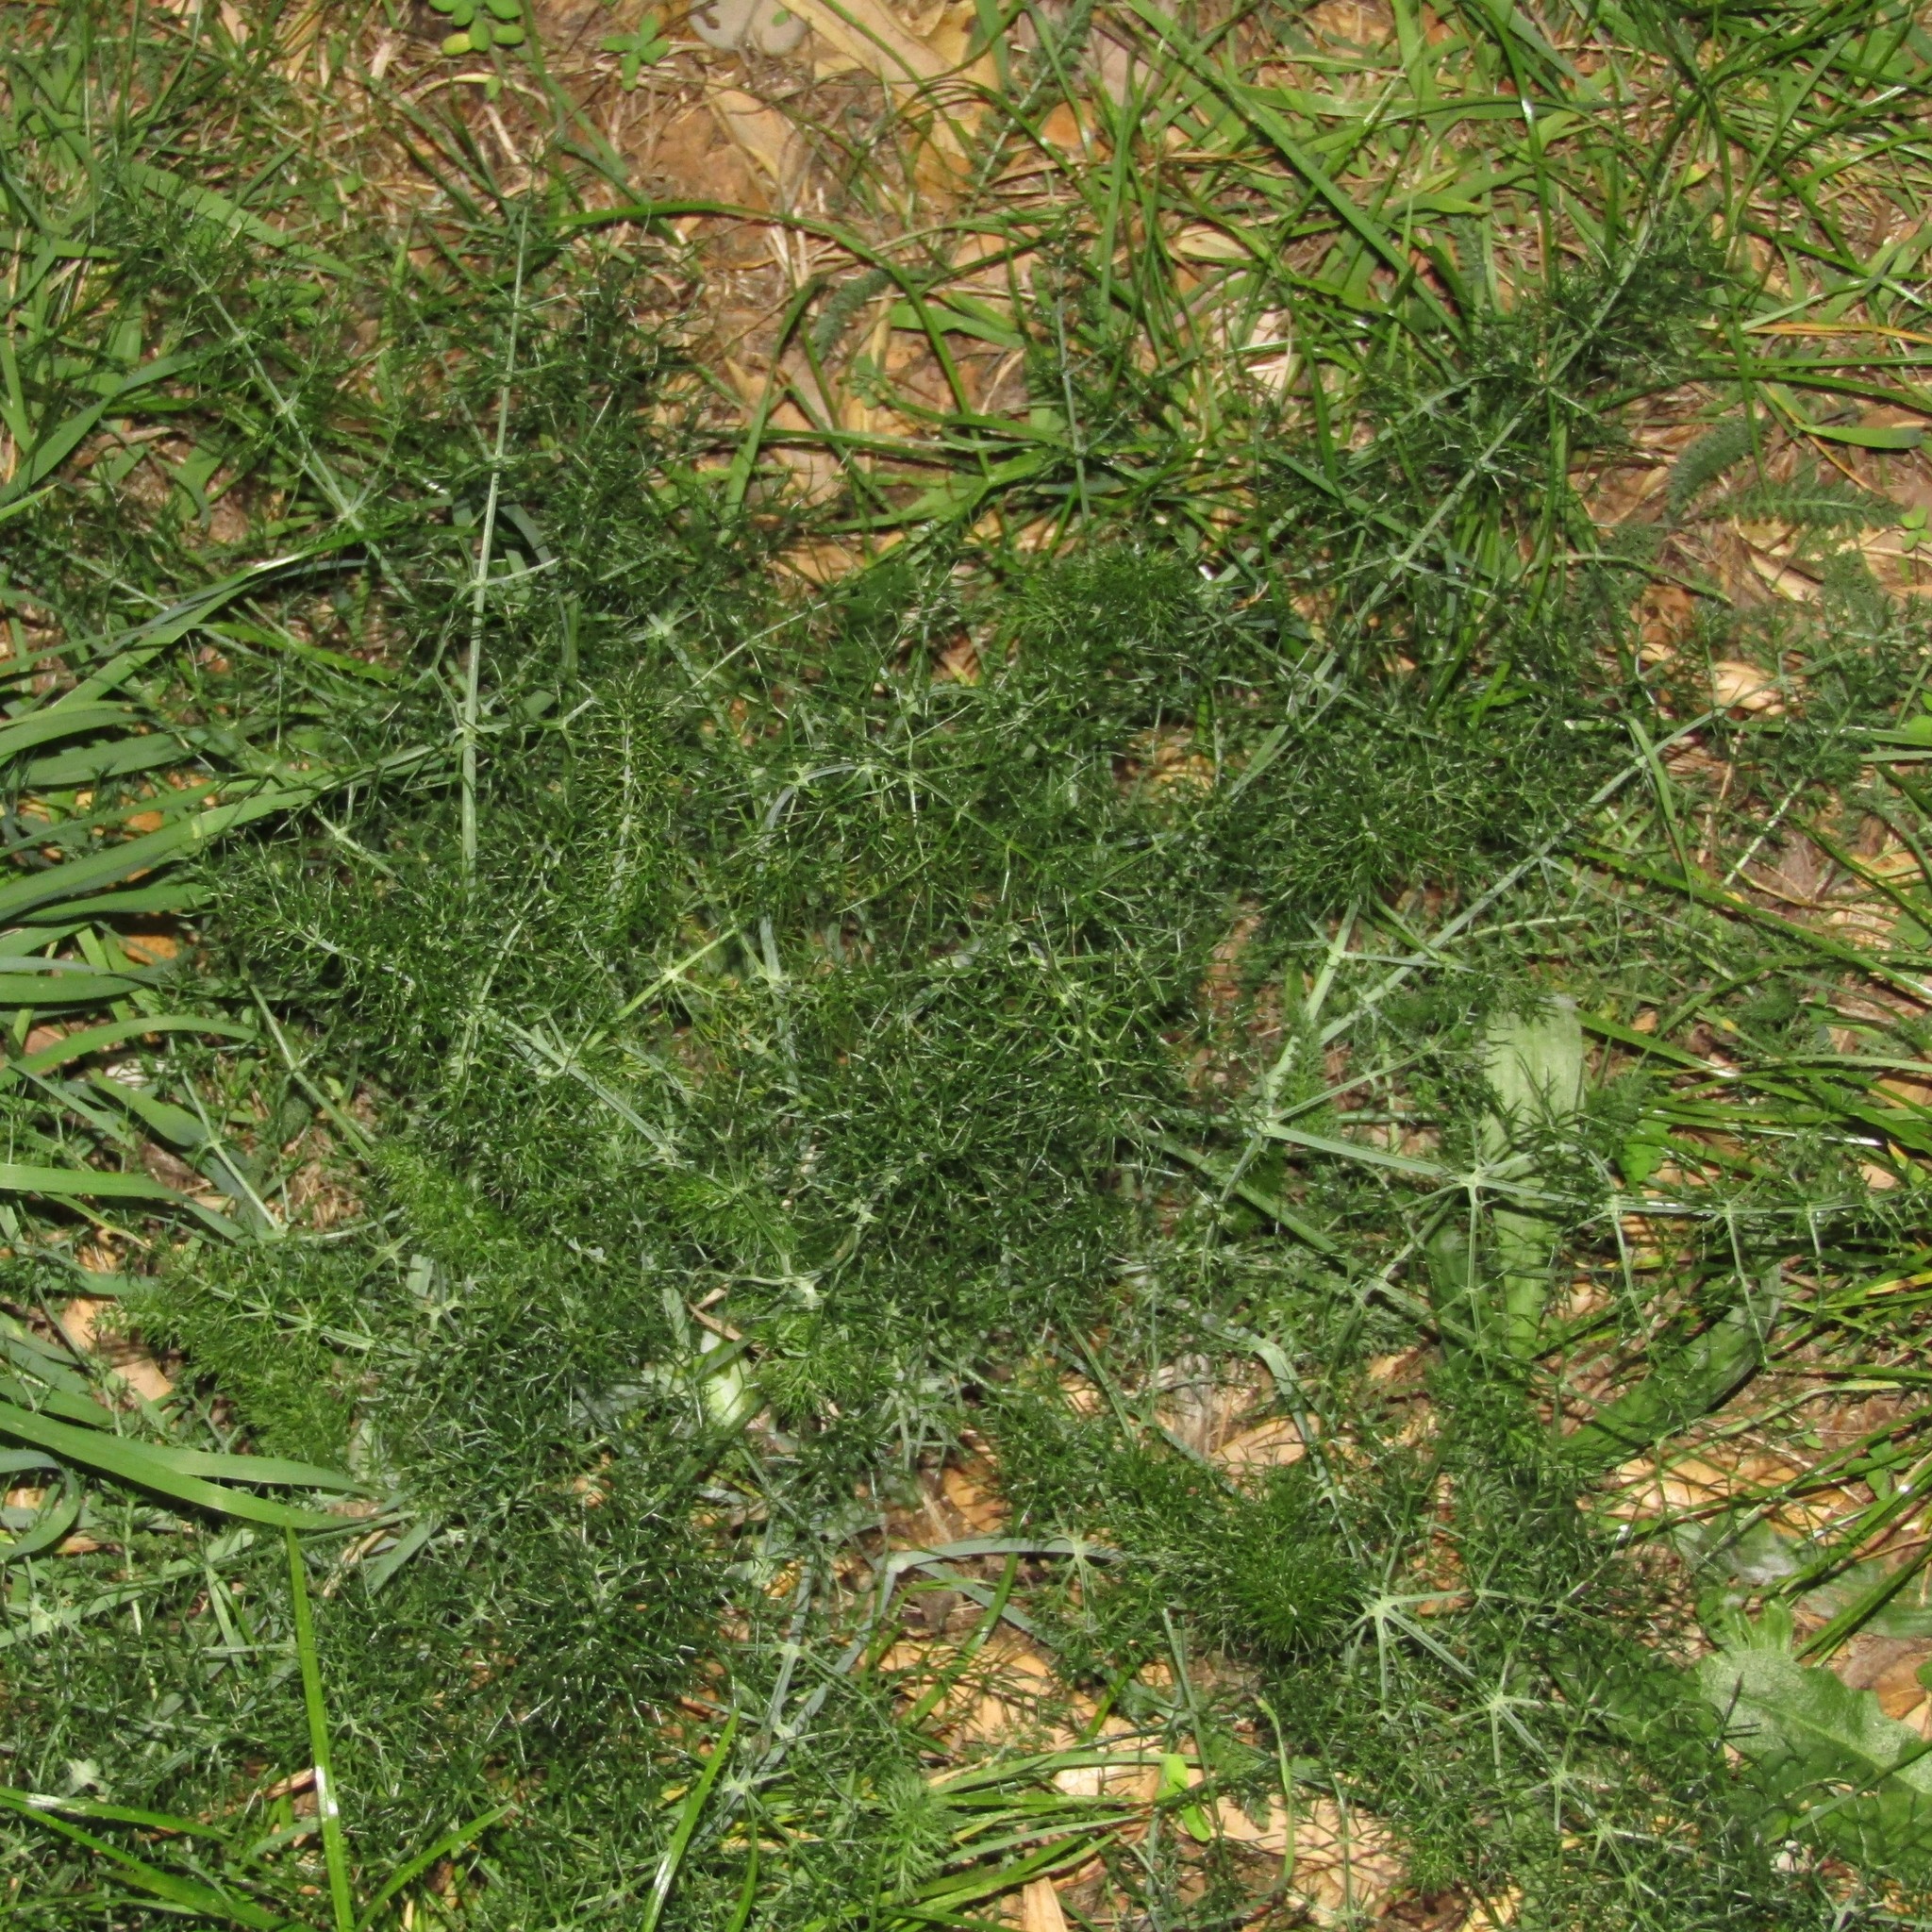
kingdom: Plantae
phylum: Tracheophyta
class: Magnoliopsida
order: Apiales
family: Apiaceae
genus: Foeniculum
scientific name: Foeniculum vulgare
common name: Fennel
